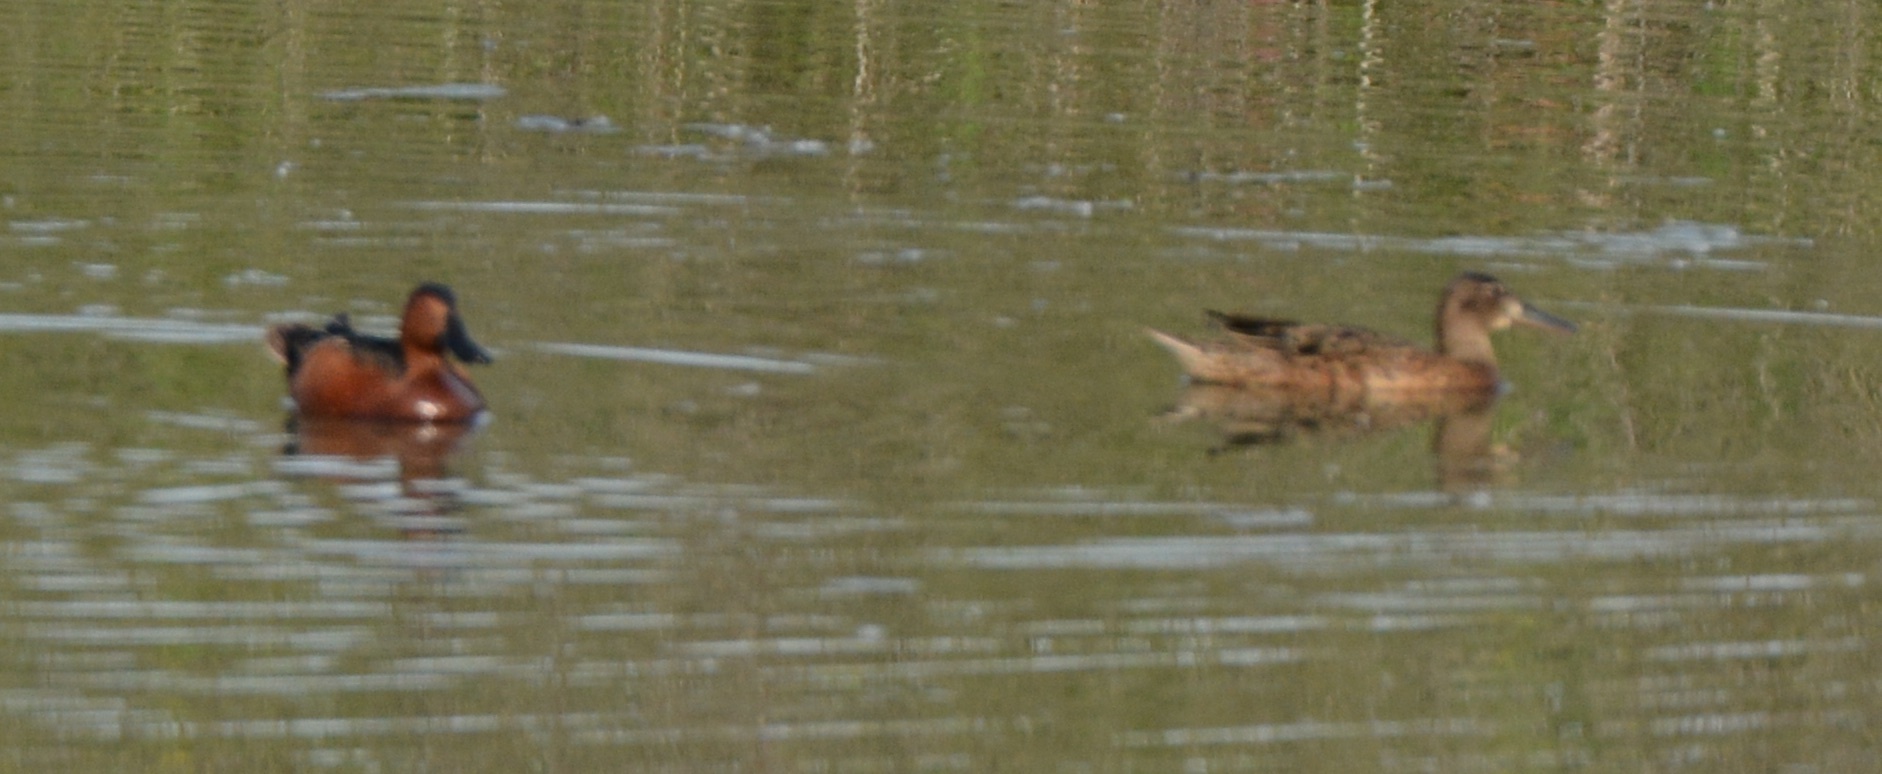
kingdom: Animalia
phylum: Chordata
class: Aves
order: Anseriformes
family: Anatidae
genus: Spatula
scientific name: Spatula cyanoptera
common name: Cinnamon teal
